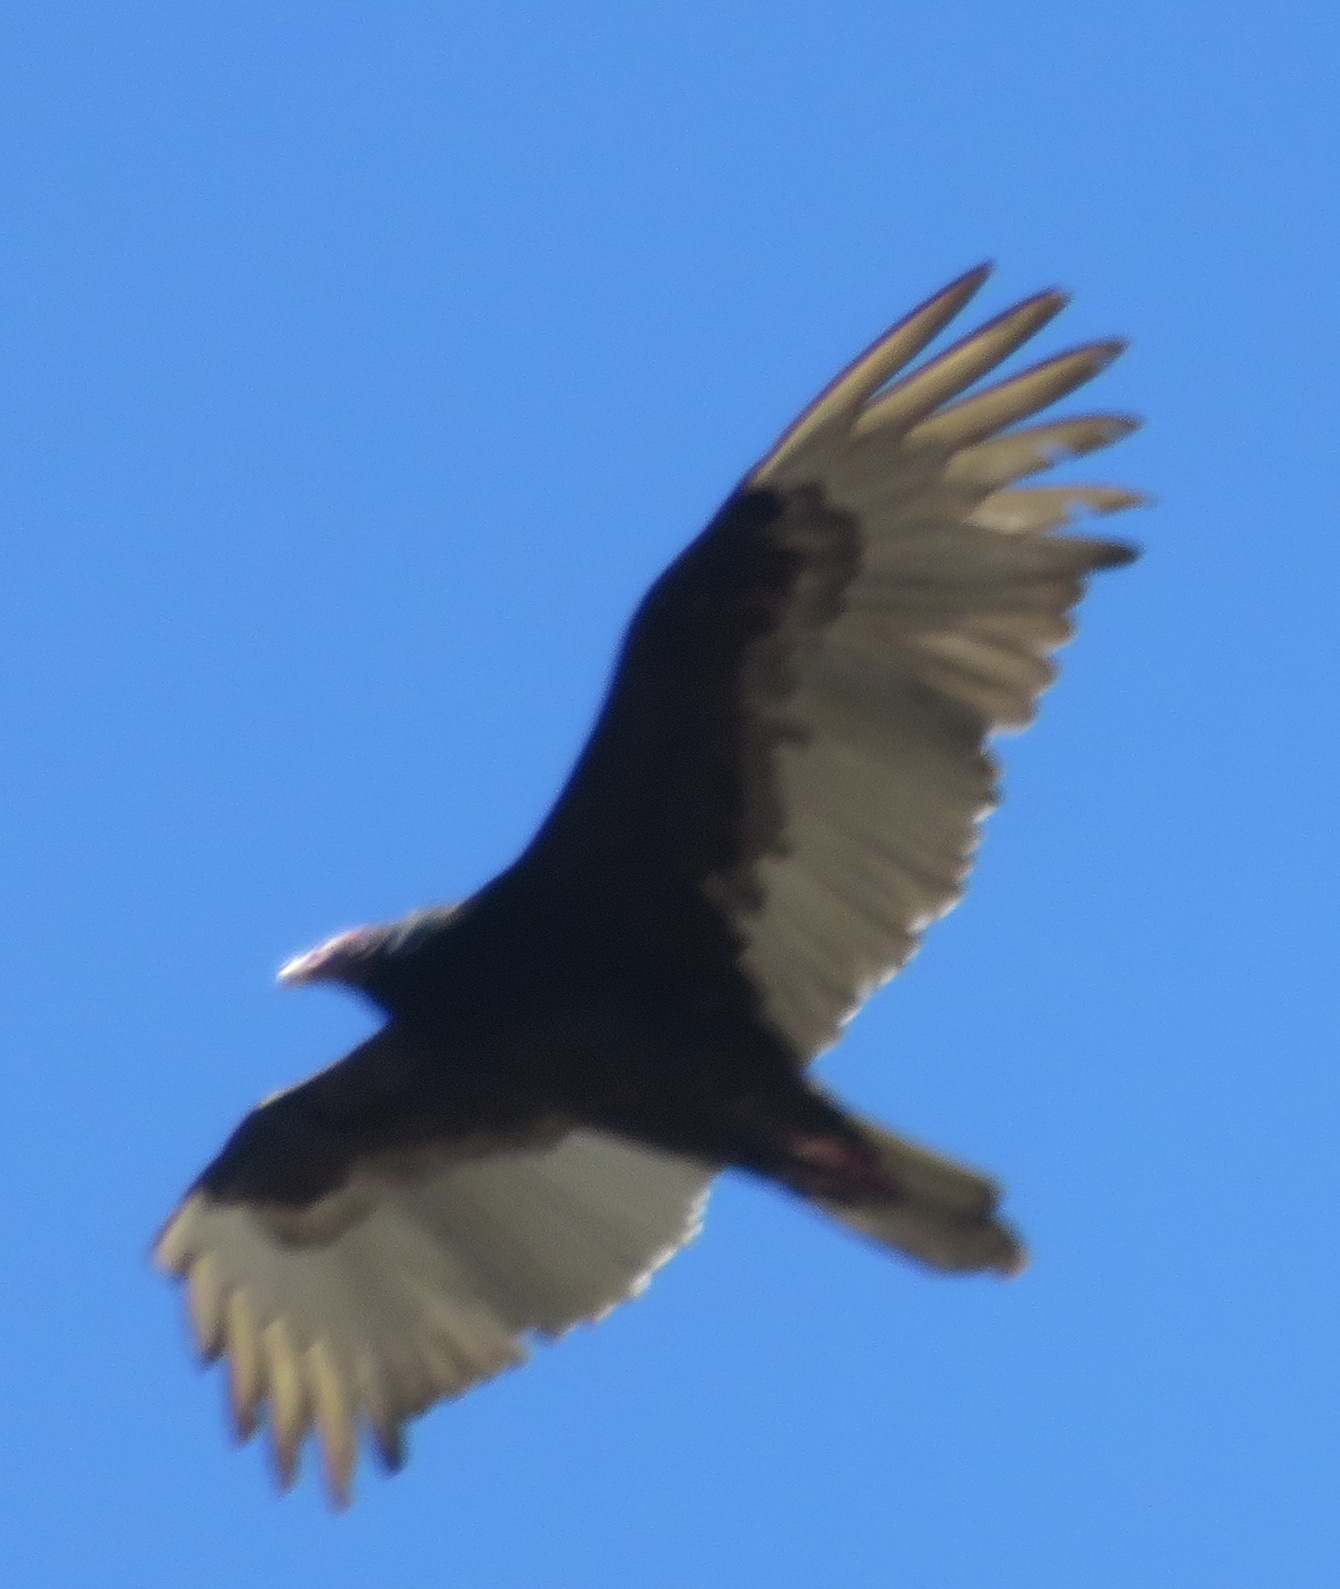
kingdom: Animalia
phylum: Chordata
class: Aves
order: Accipitriformes
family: Cathartidae
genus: Cathartes
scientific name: Cathartes aura
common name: Turkey vulture
